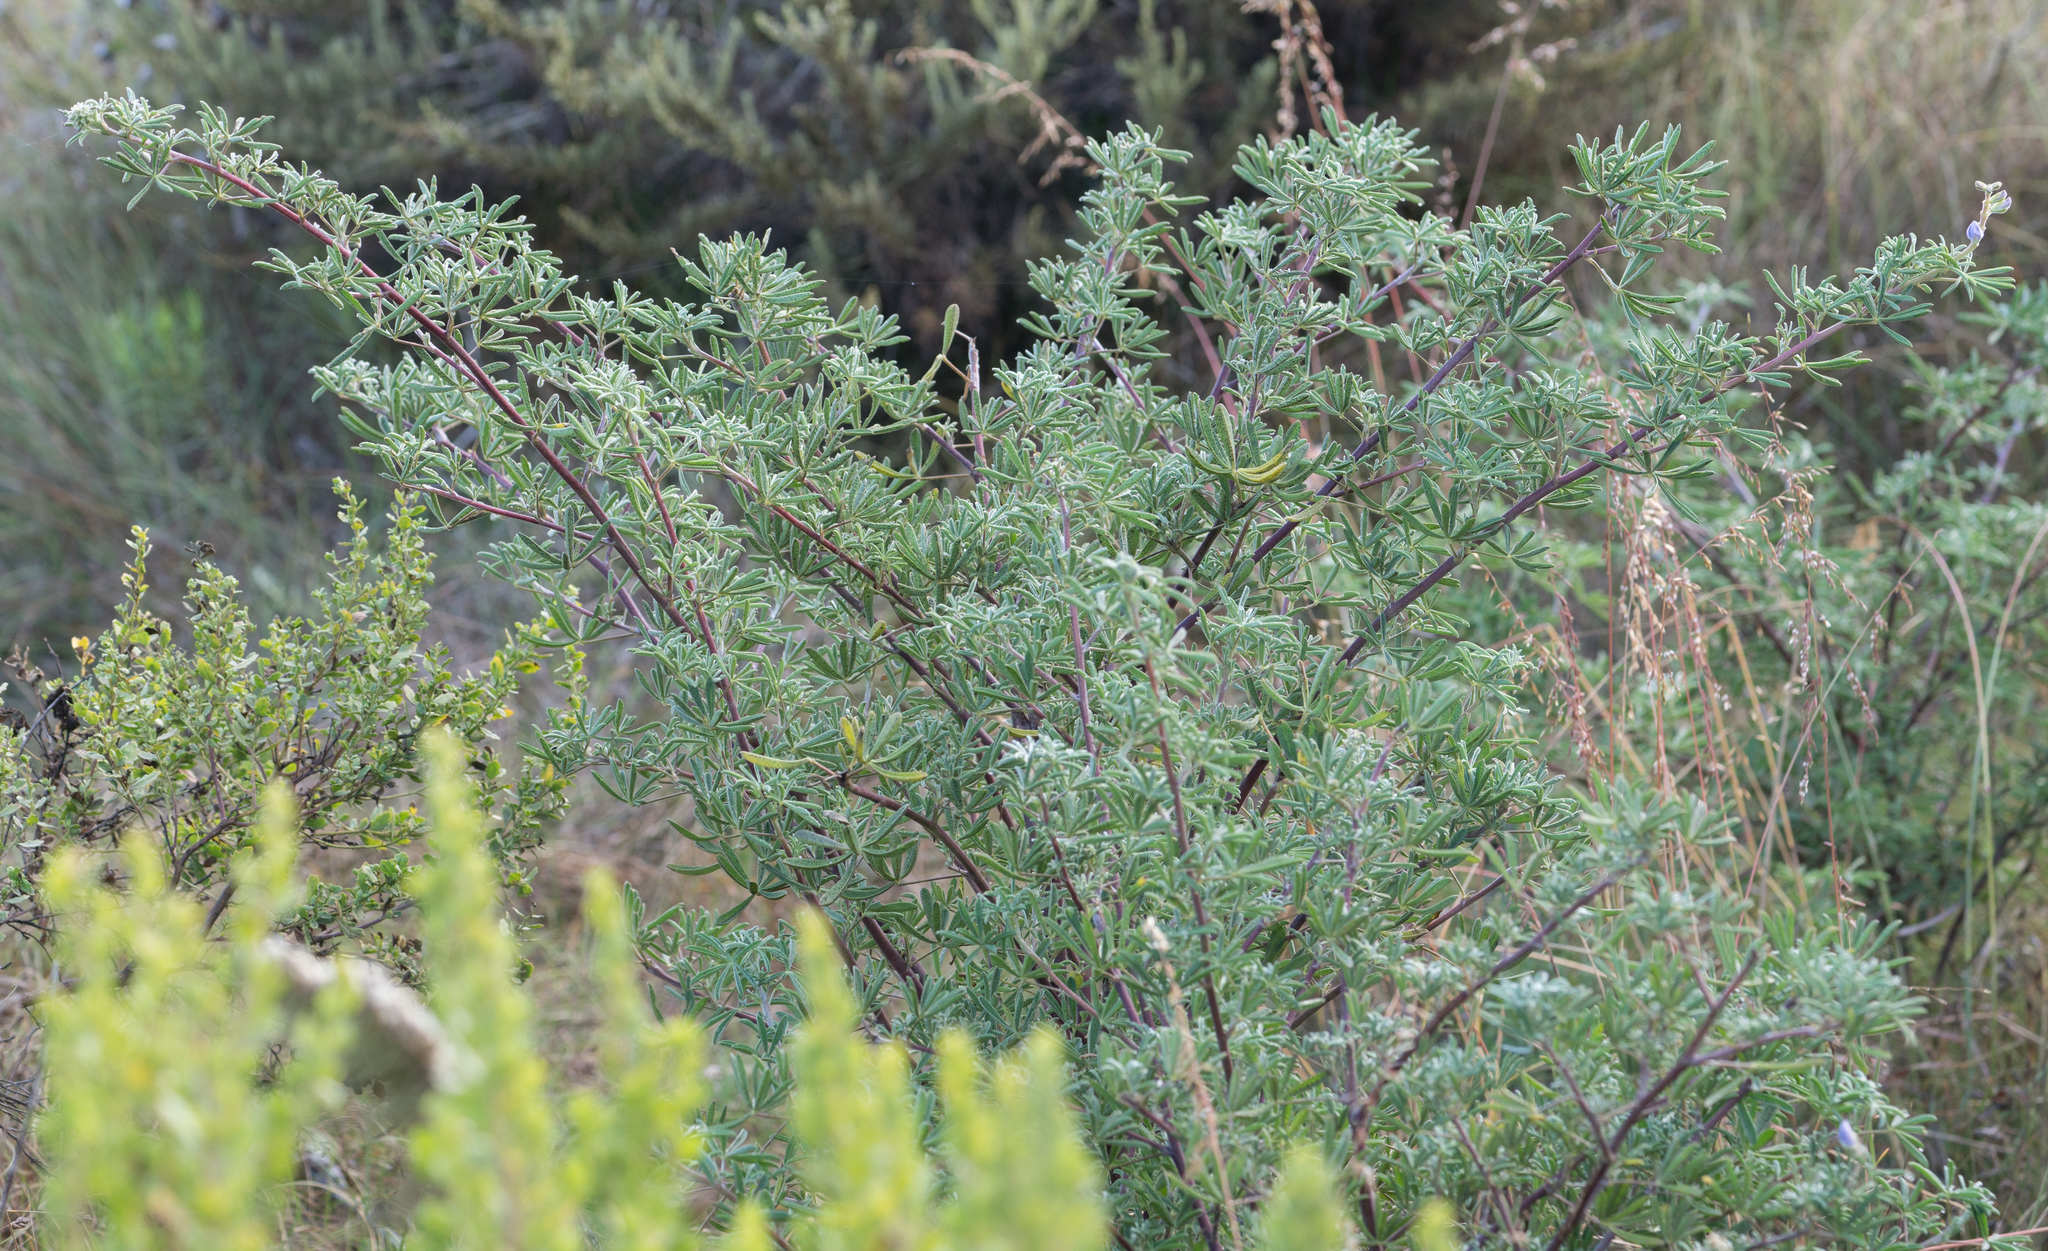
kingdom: Plantae
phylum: Tracheophyta
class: Magnoliopsida
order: Fabales
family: Fabaceae
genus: Lupinus
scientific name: Lupinus albifrons
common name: Foothill lupine
